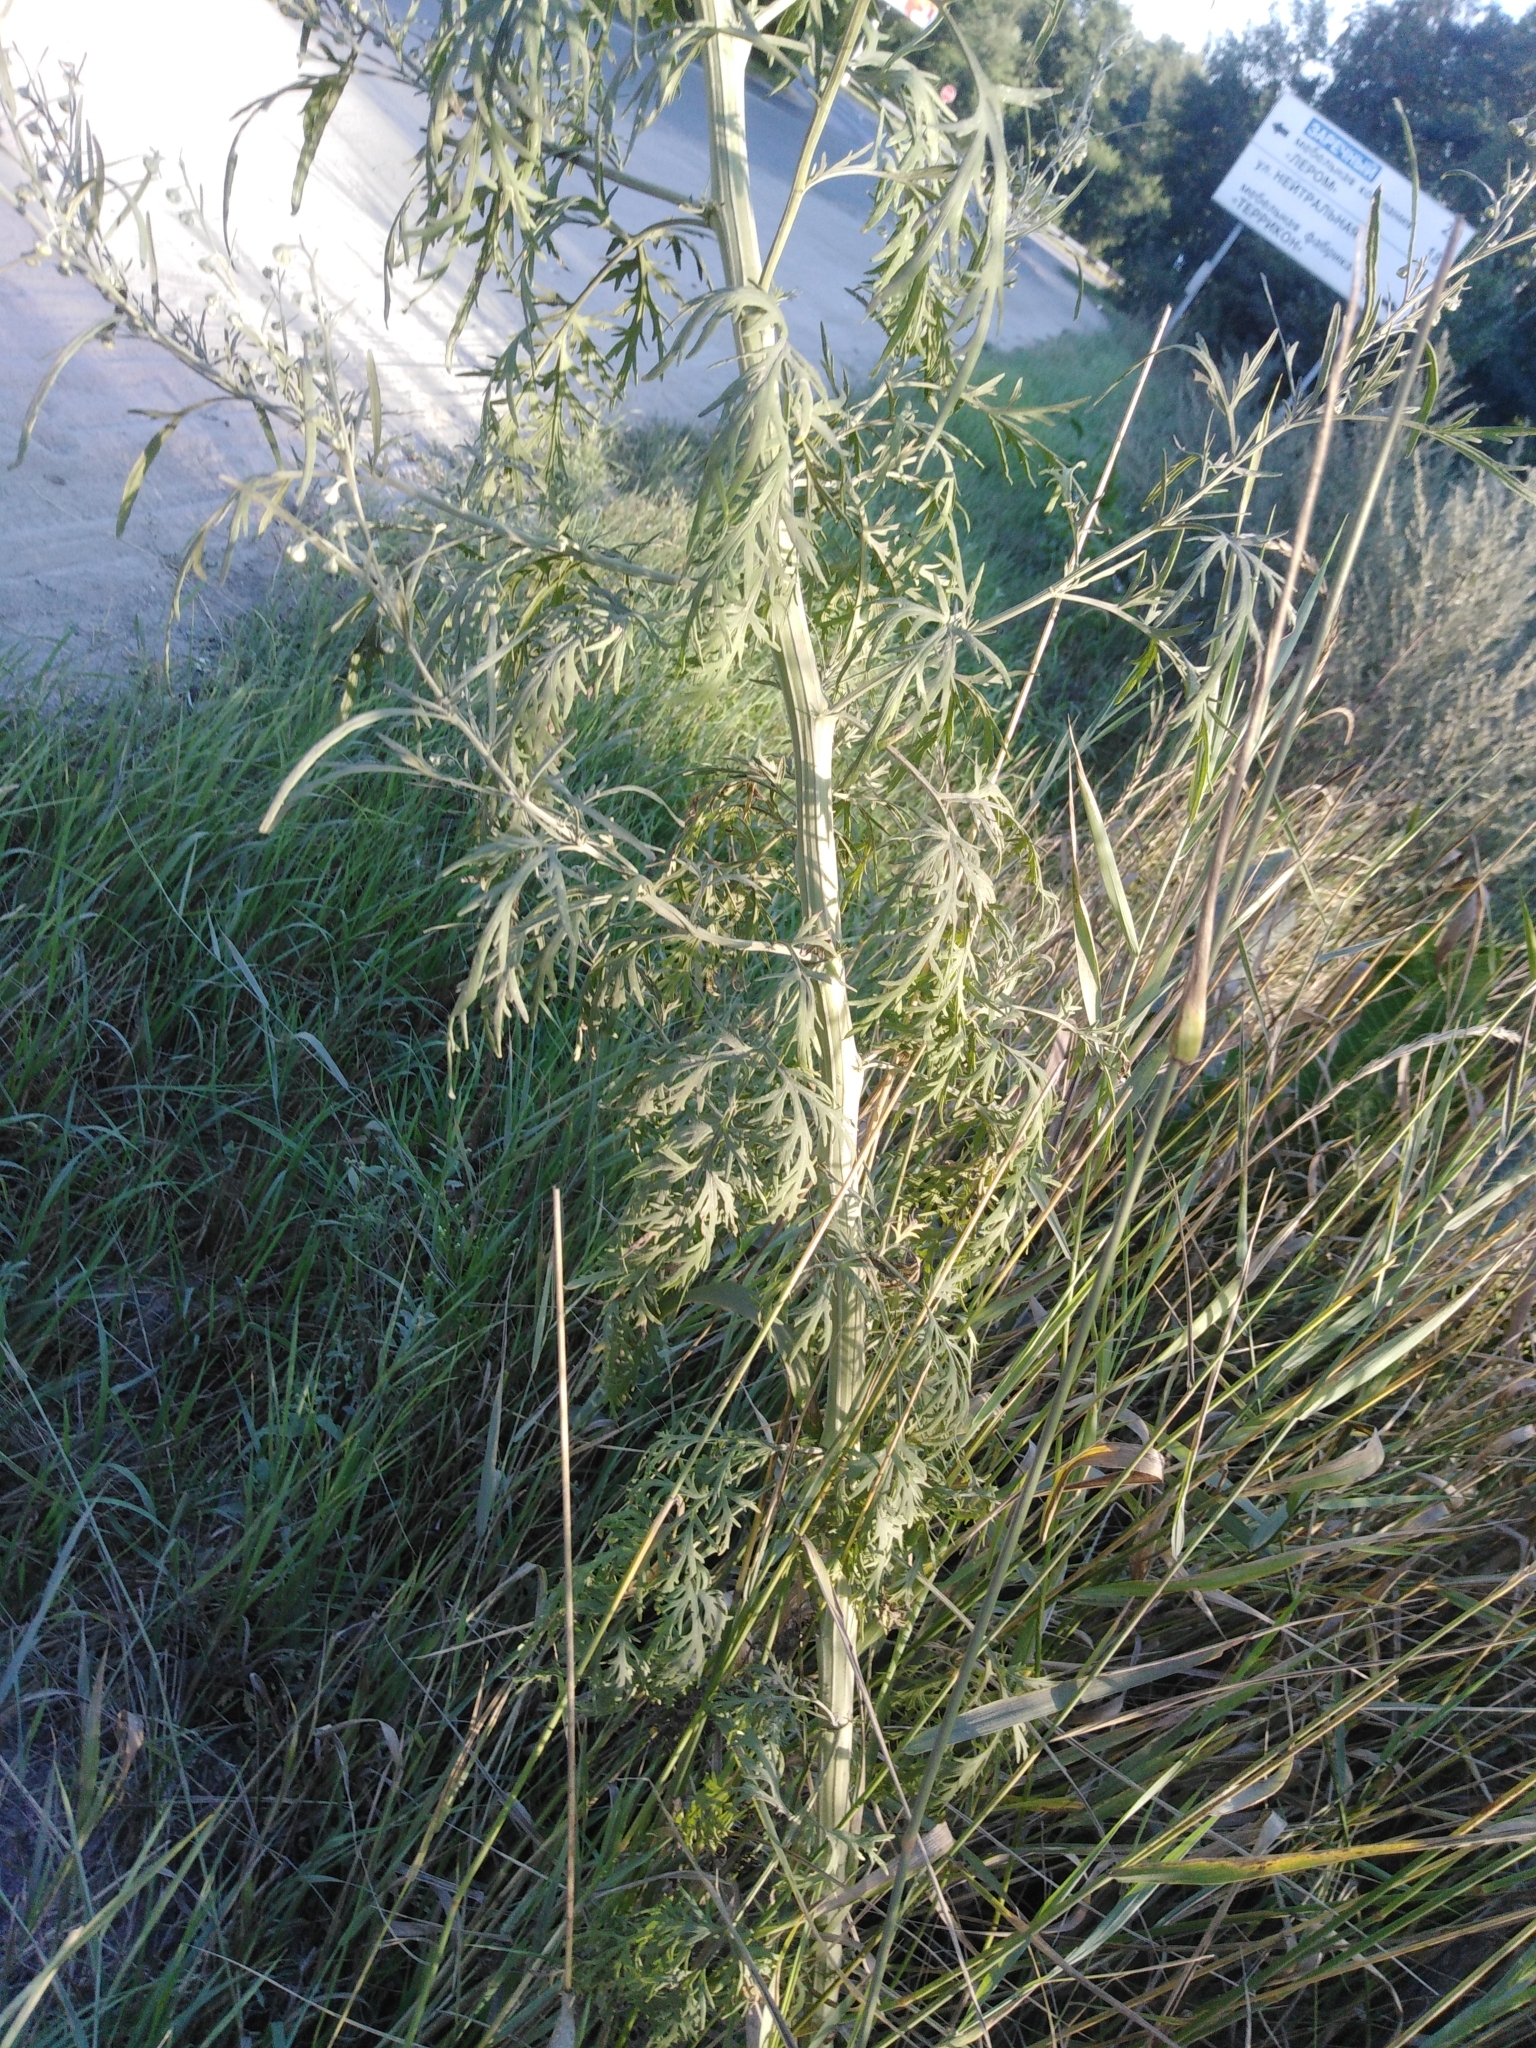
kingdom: Plantae
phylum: Tracheophyta
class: Magnoliopsida
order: Asterales
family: Asteraceae
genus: Artemisia
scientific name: Artemisia sieversiana
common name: Sieversian wormwood
